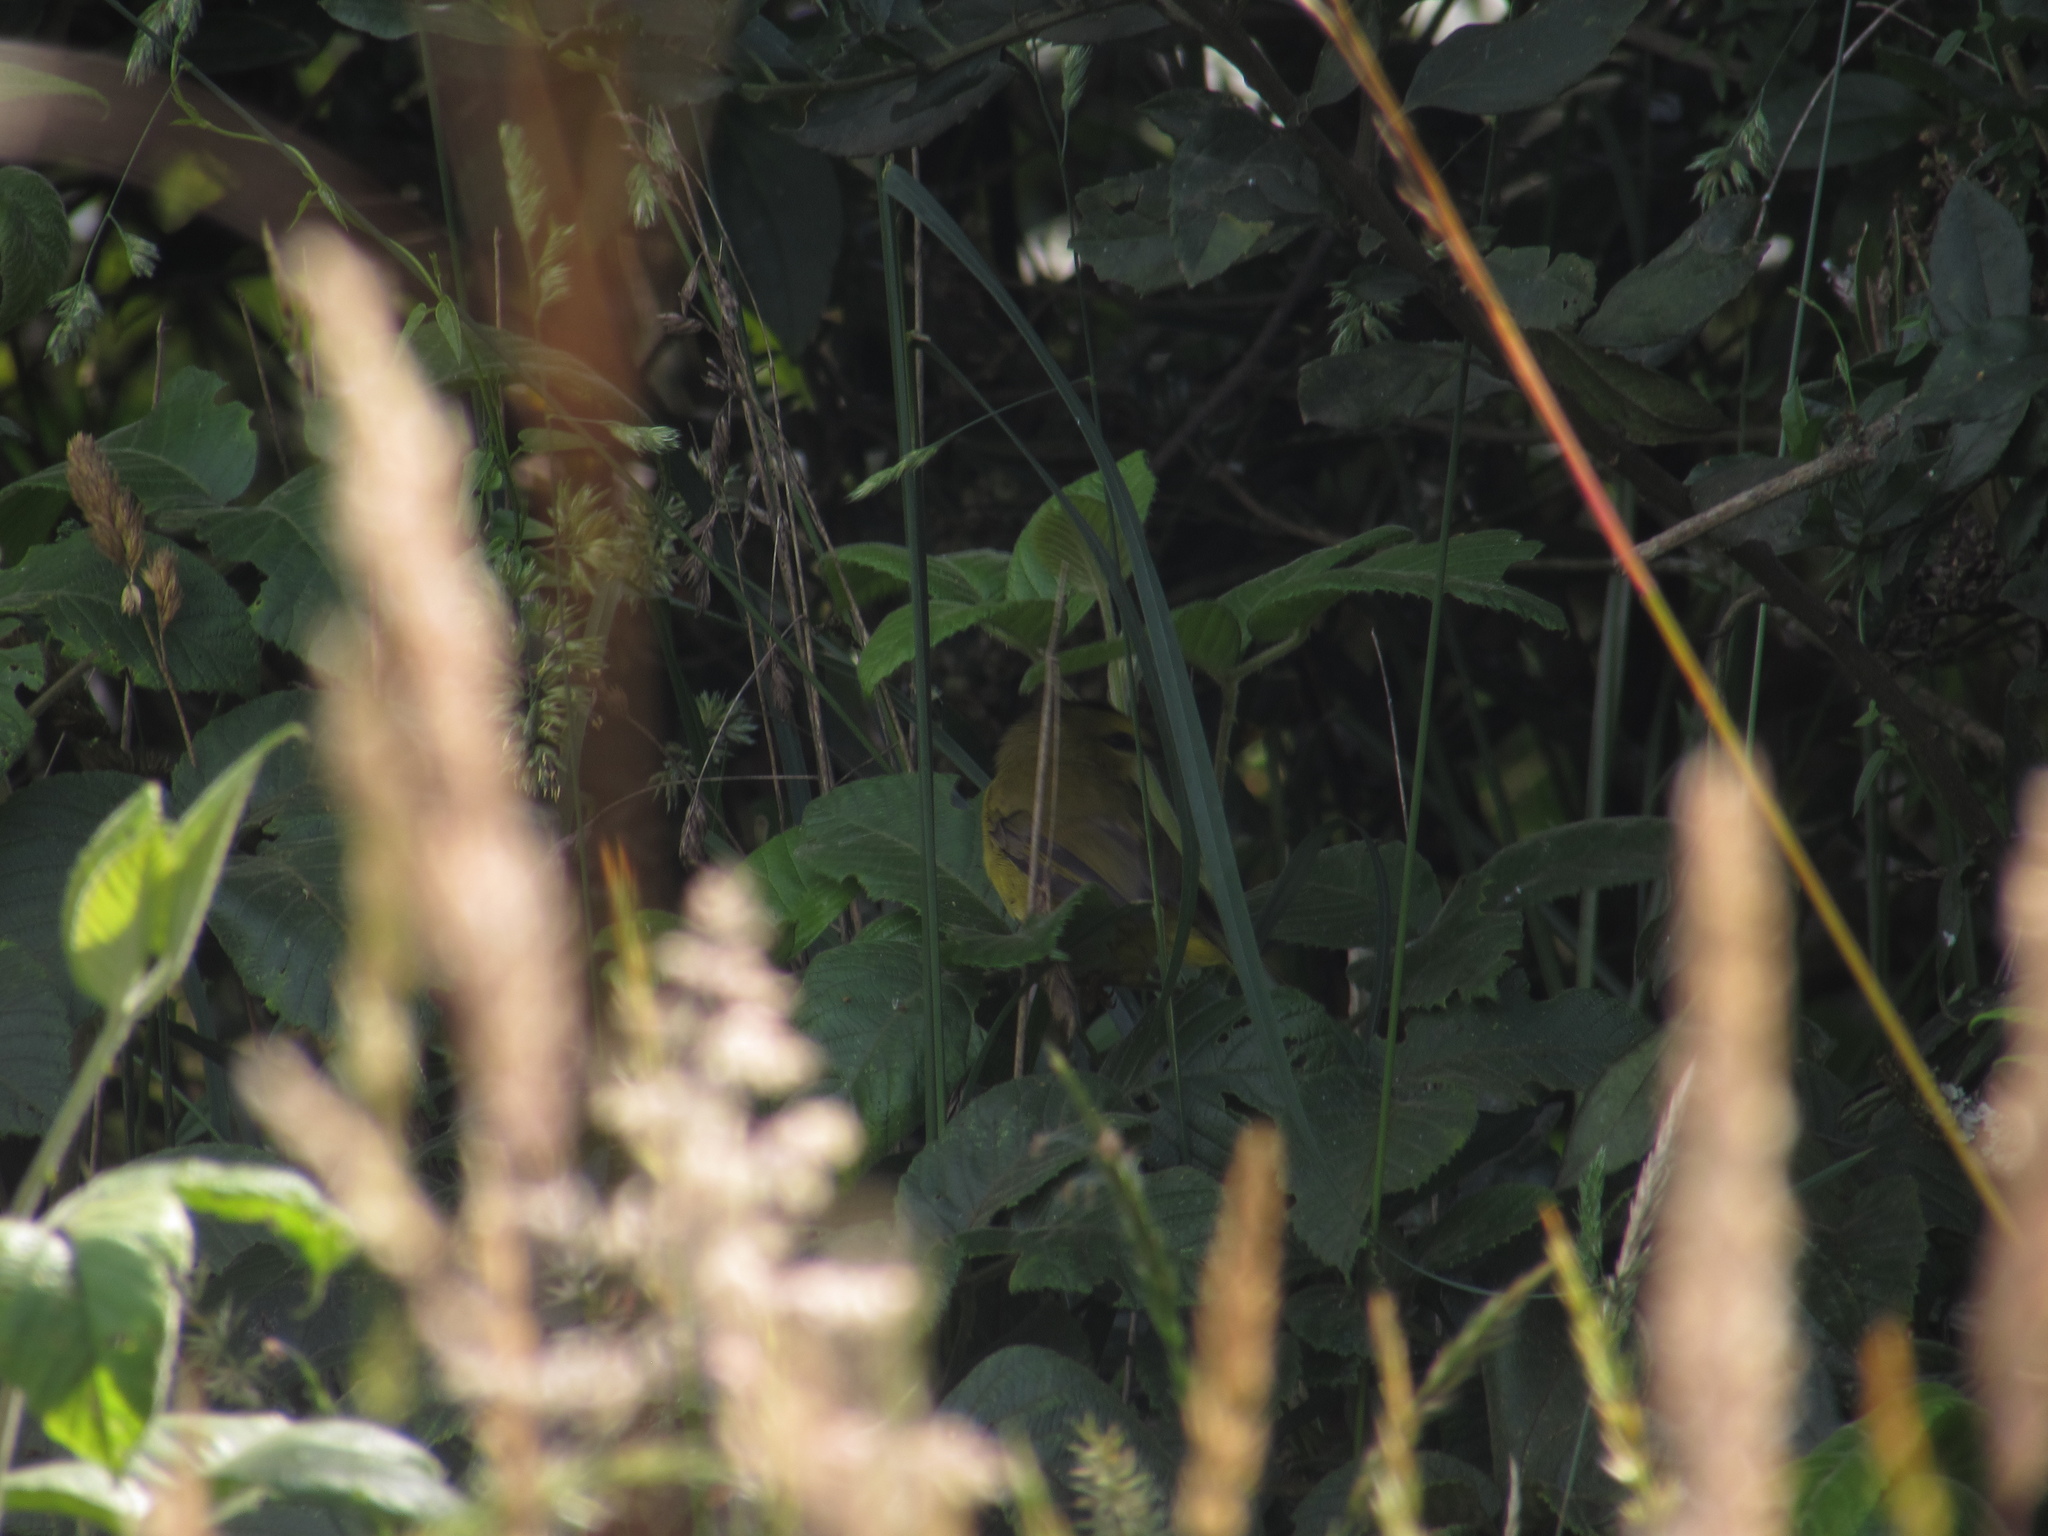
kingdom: Animalia
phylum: Chordata
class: Aves
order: Passeriformes
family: Parulidae
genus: Myiothlypis
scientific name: Myiothlypis nigrocristata
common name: Black-crested warbler
